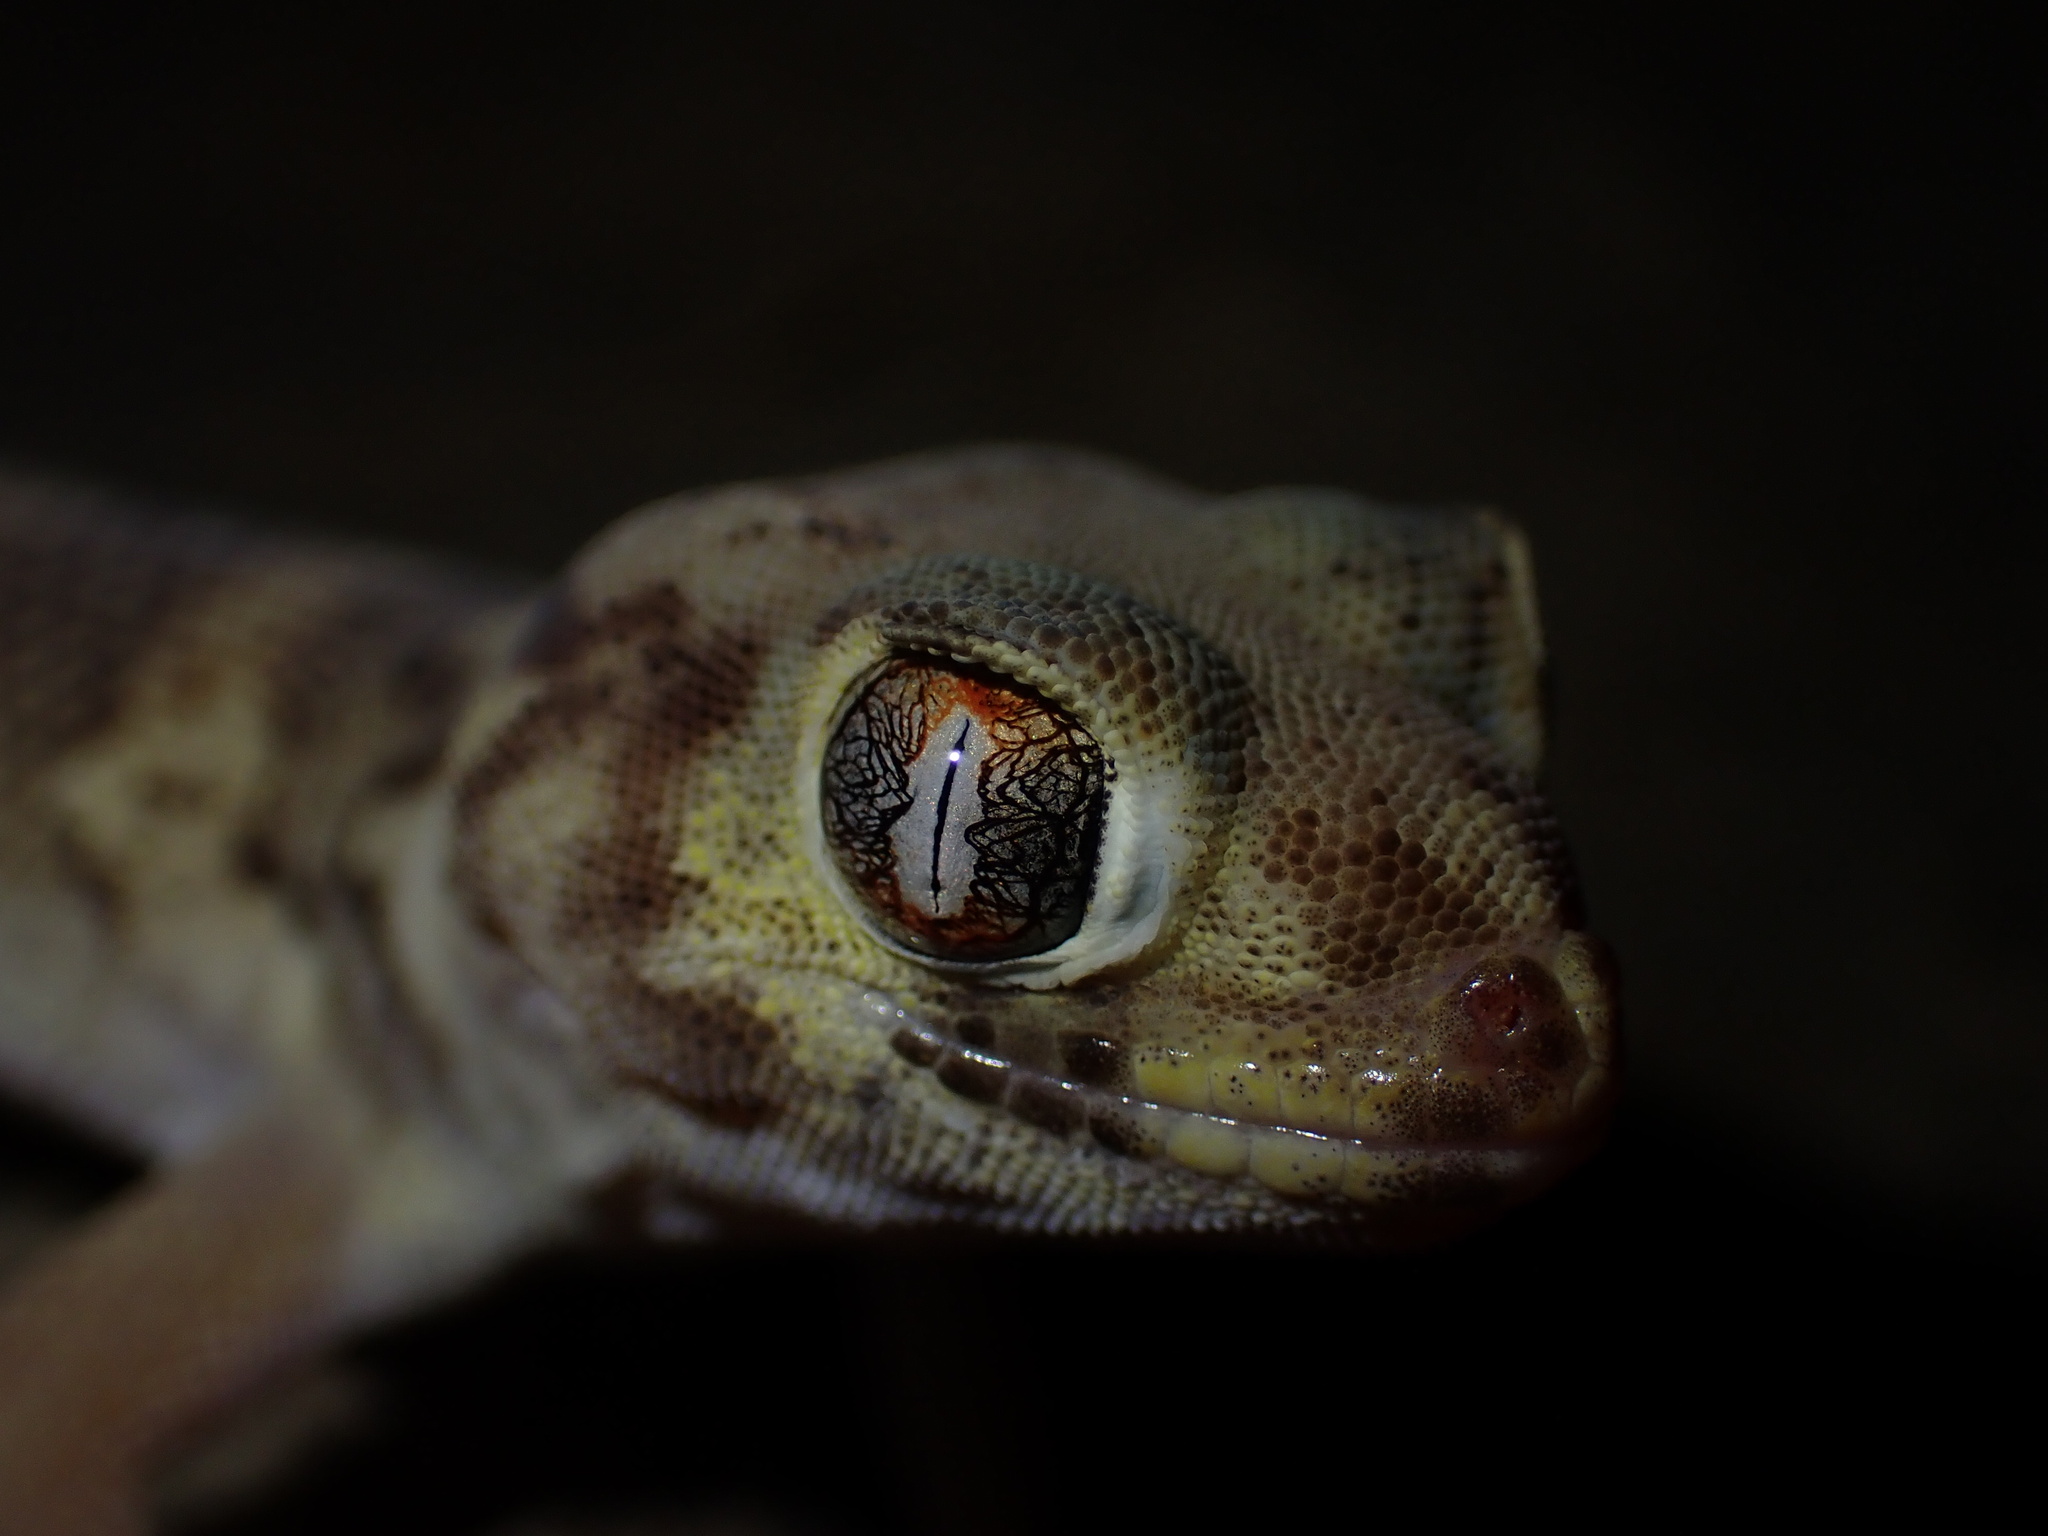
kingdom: Animalia
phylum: Chordata
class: Squamata
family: Sphaerodactylidae
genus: Teratoscincus
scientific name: Teratoscincus bedriagai
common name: Bedriaga's plate-tailed gecko
